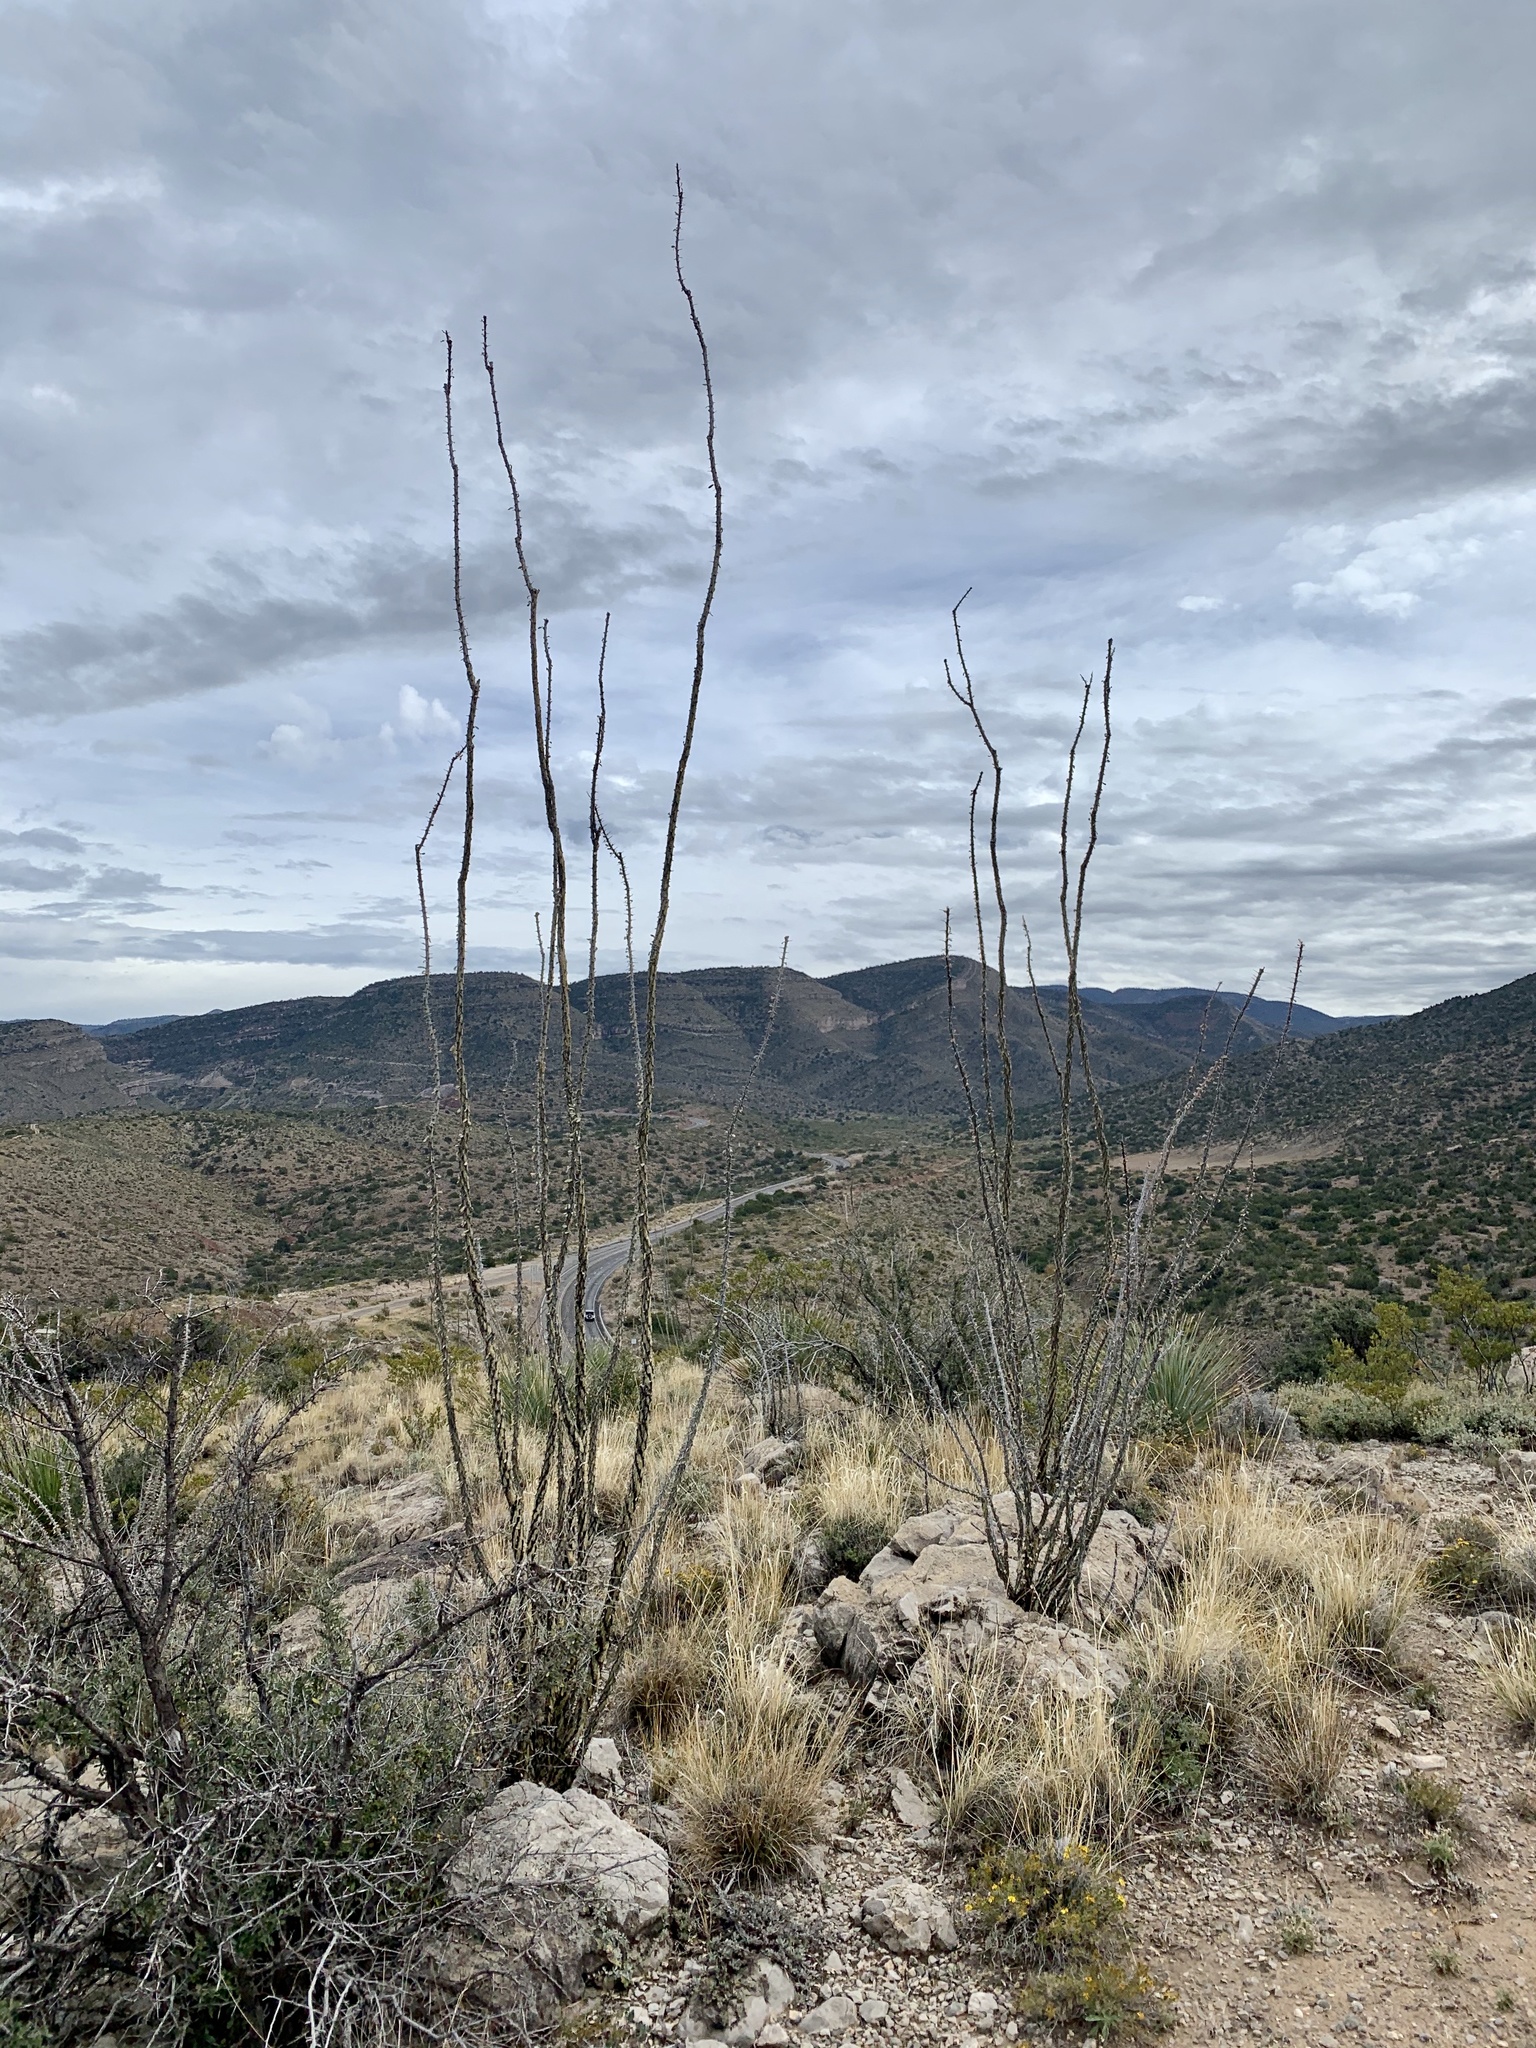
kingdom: Plantae
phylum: Tracheophyta
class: Magnoliopsida
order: Ericales
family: Fouquieriaceae
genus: Fouquieria
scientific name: Fouquieria splendens
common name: Vine-cactus
